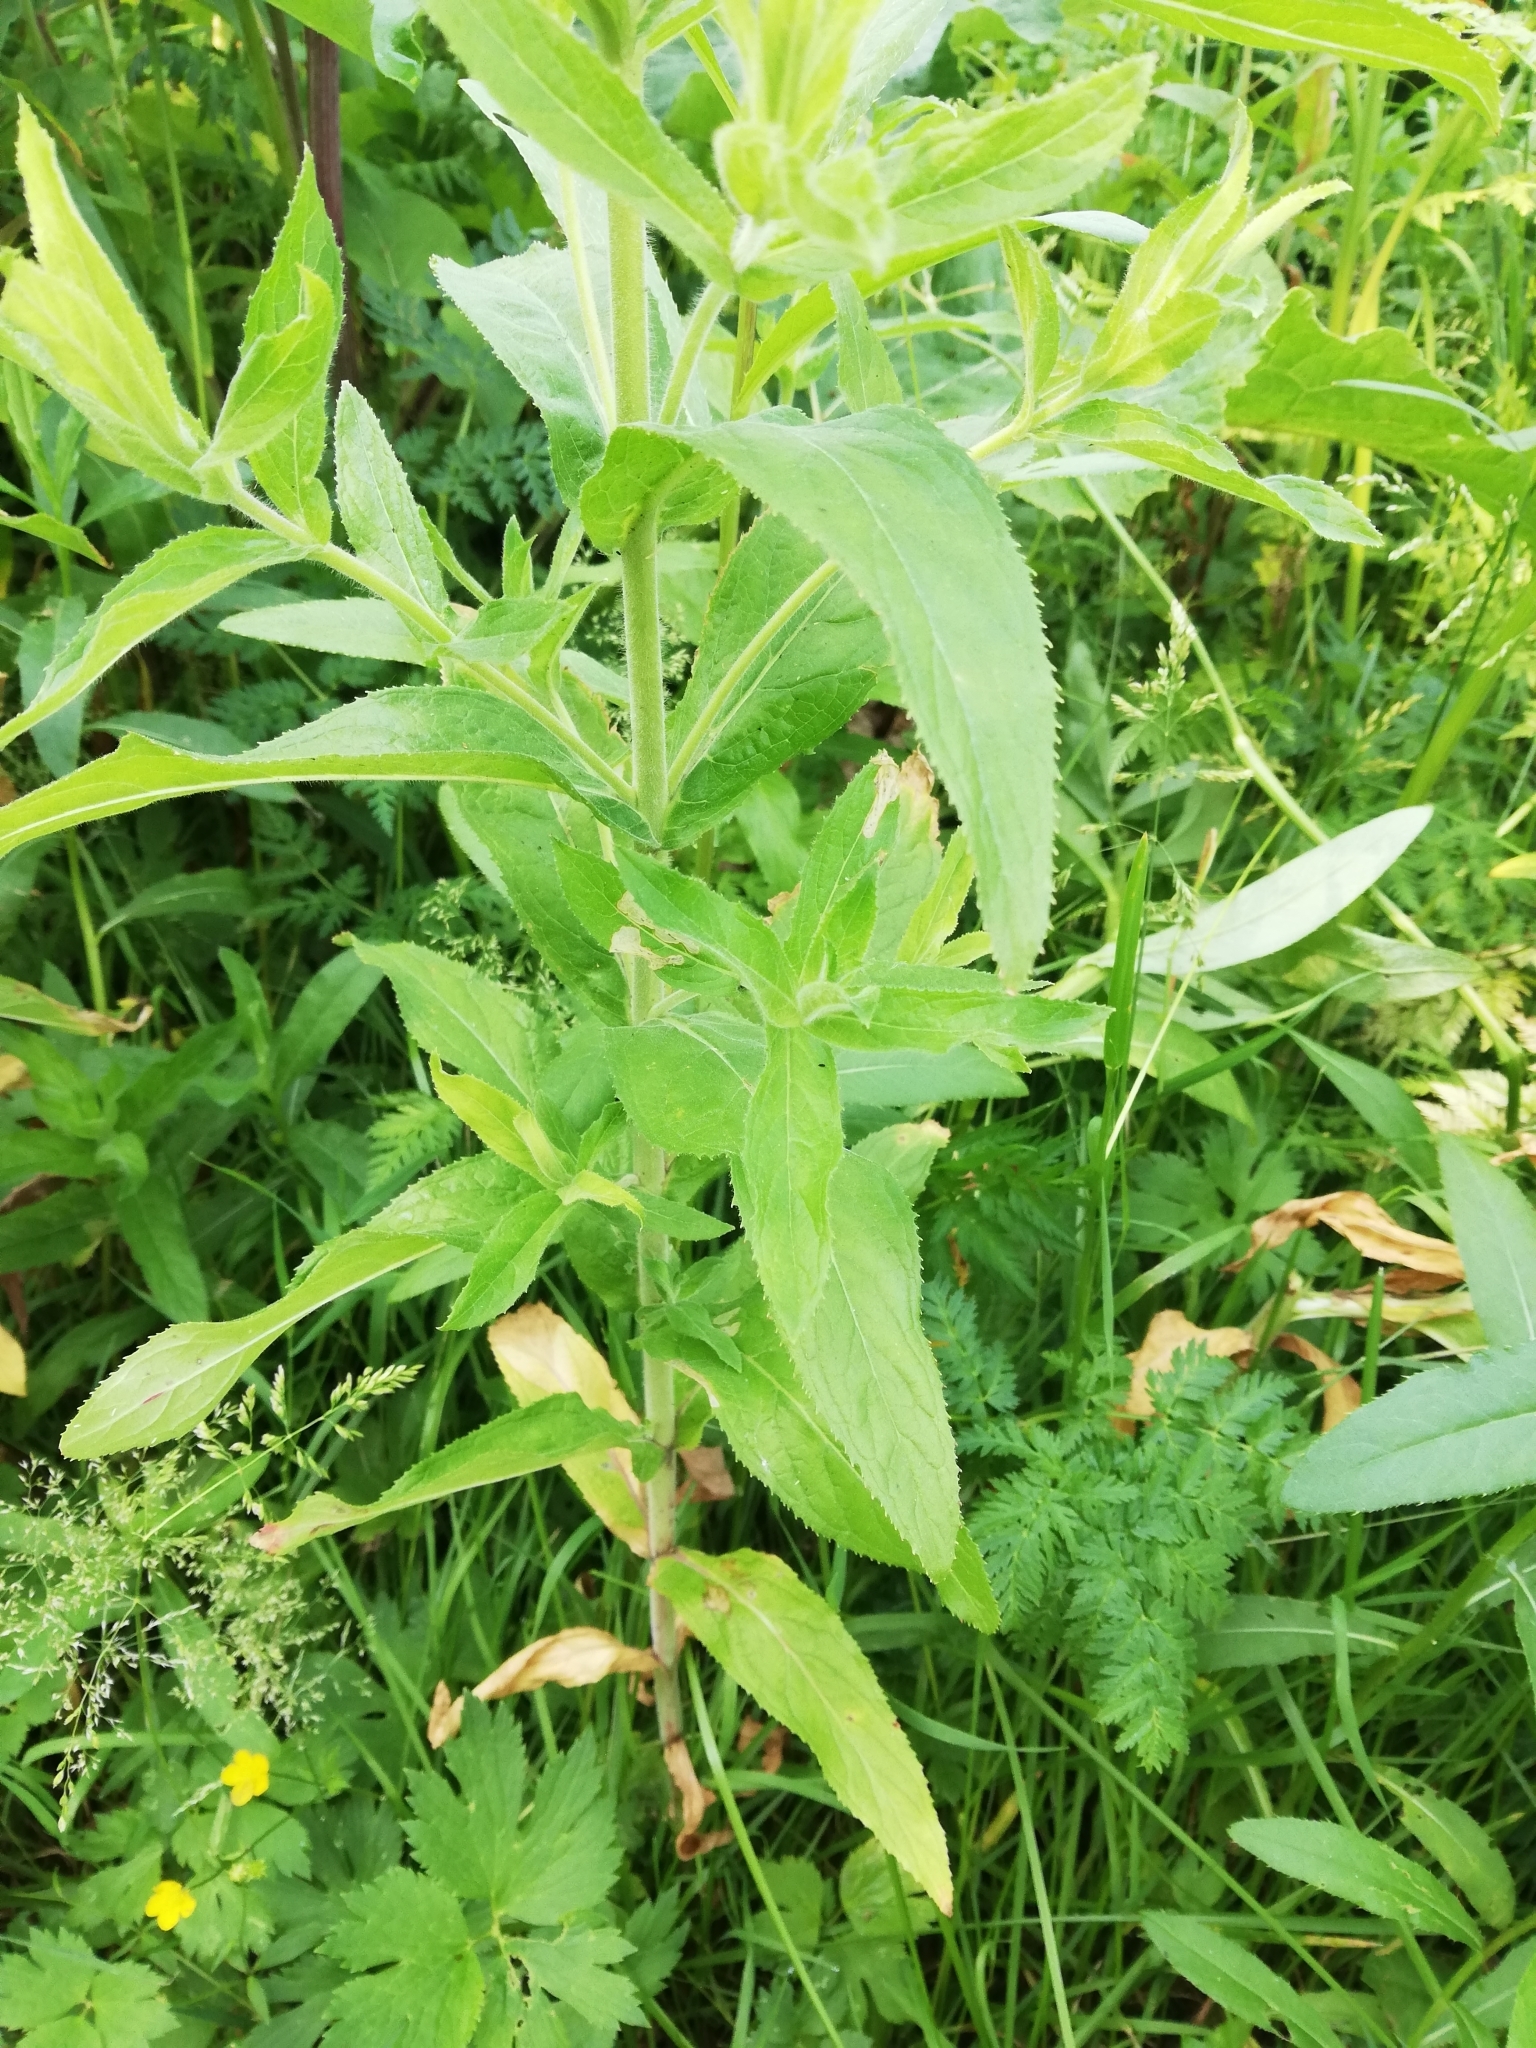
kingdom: Plantae
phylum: Tracheophyta
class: Magnoliopsida
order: Myrtales
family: Onagraceae
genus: Epilobium
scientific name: Epilobium hirsutum
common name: Great willowherb
